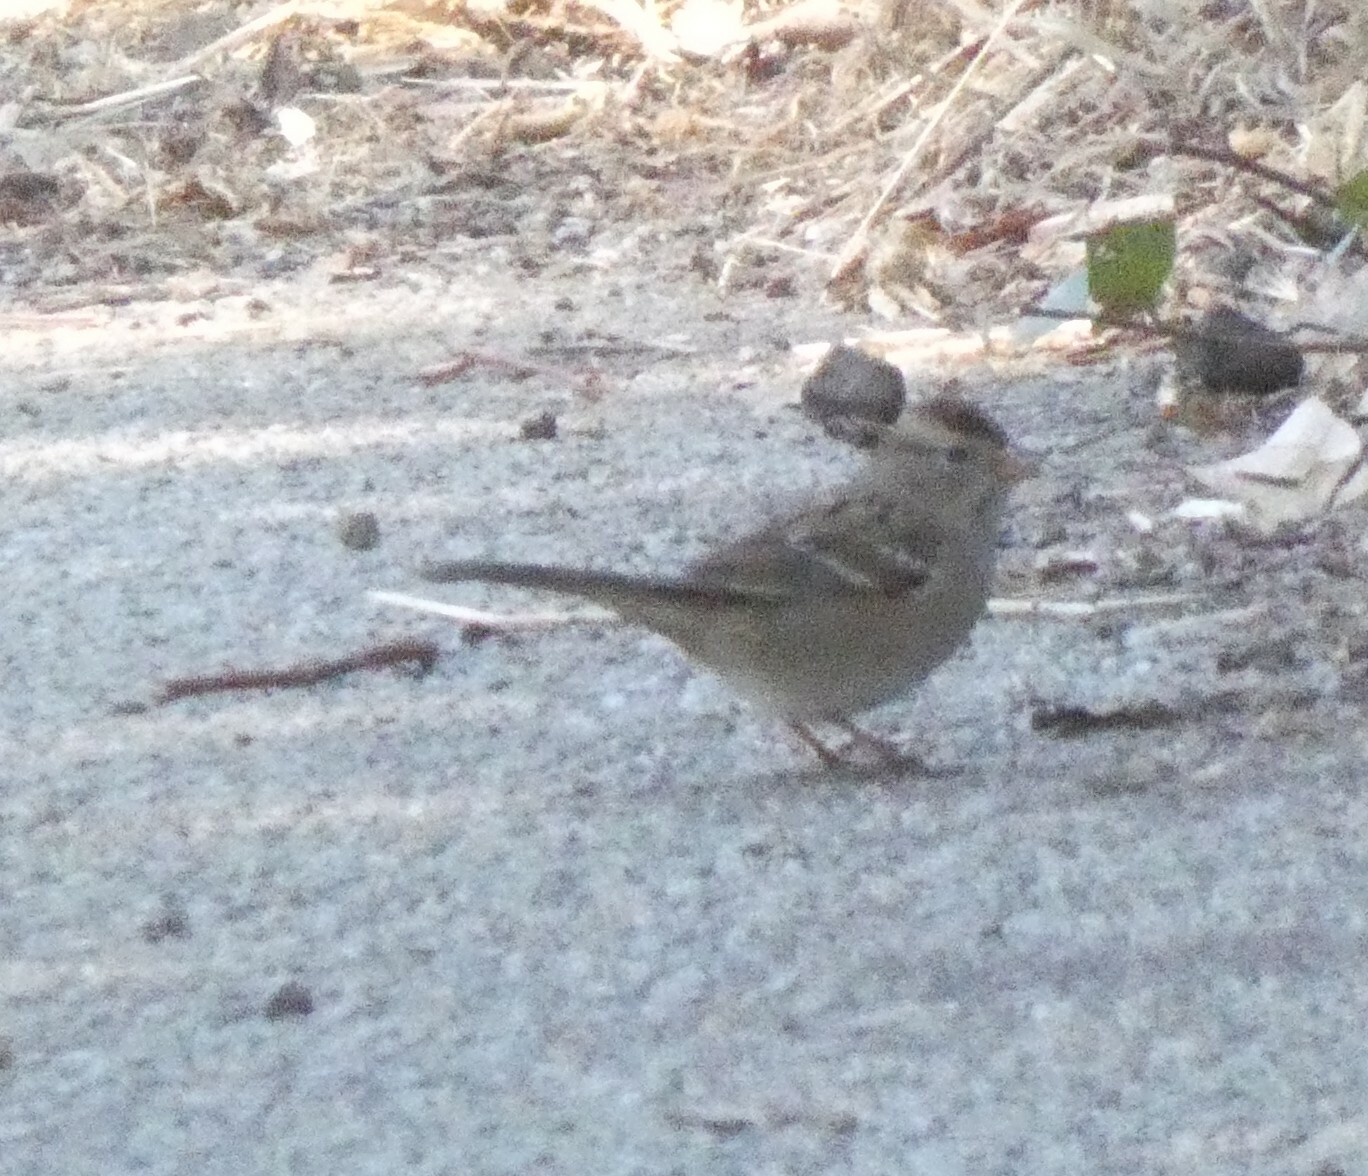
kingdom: Animalia
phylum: Chordata
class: Aves
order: Passeriformes
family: Passerellidae
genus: Zonotrichia
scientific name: Zonotrichia leucophrys
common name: White-crowned sparrow
